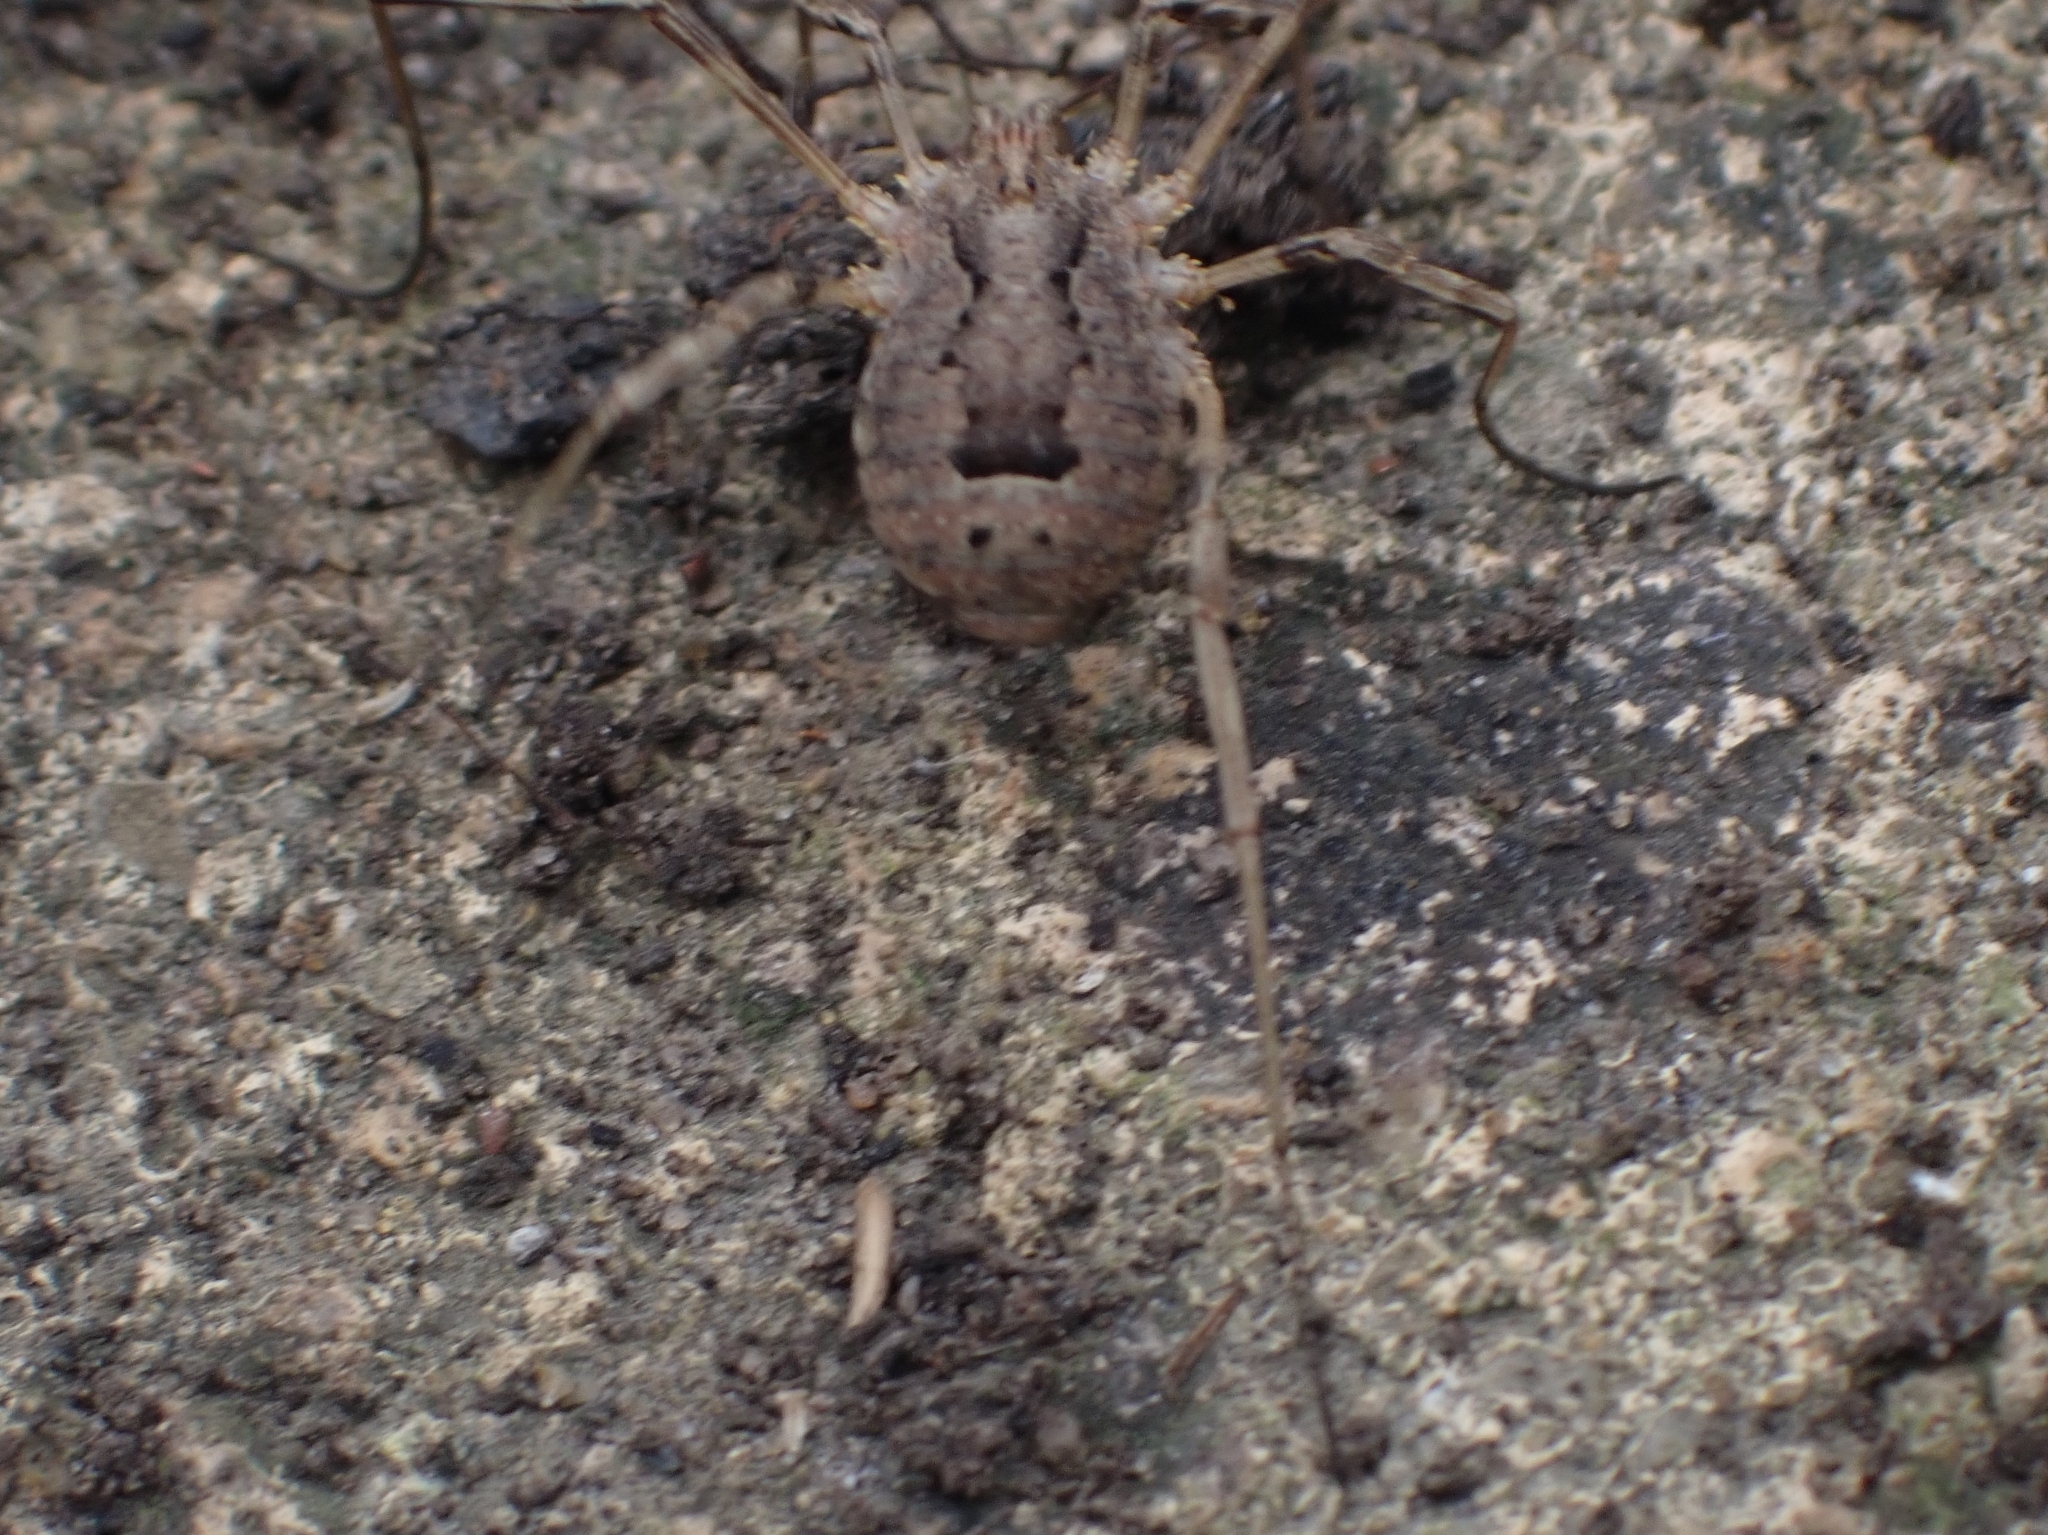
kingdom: Animalia
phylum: Arthropoda
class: Arachnida
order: Opiliones
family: Phalangiidae
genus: Odiellus
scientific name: Odiellus spinosus
